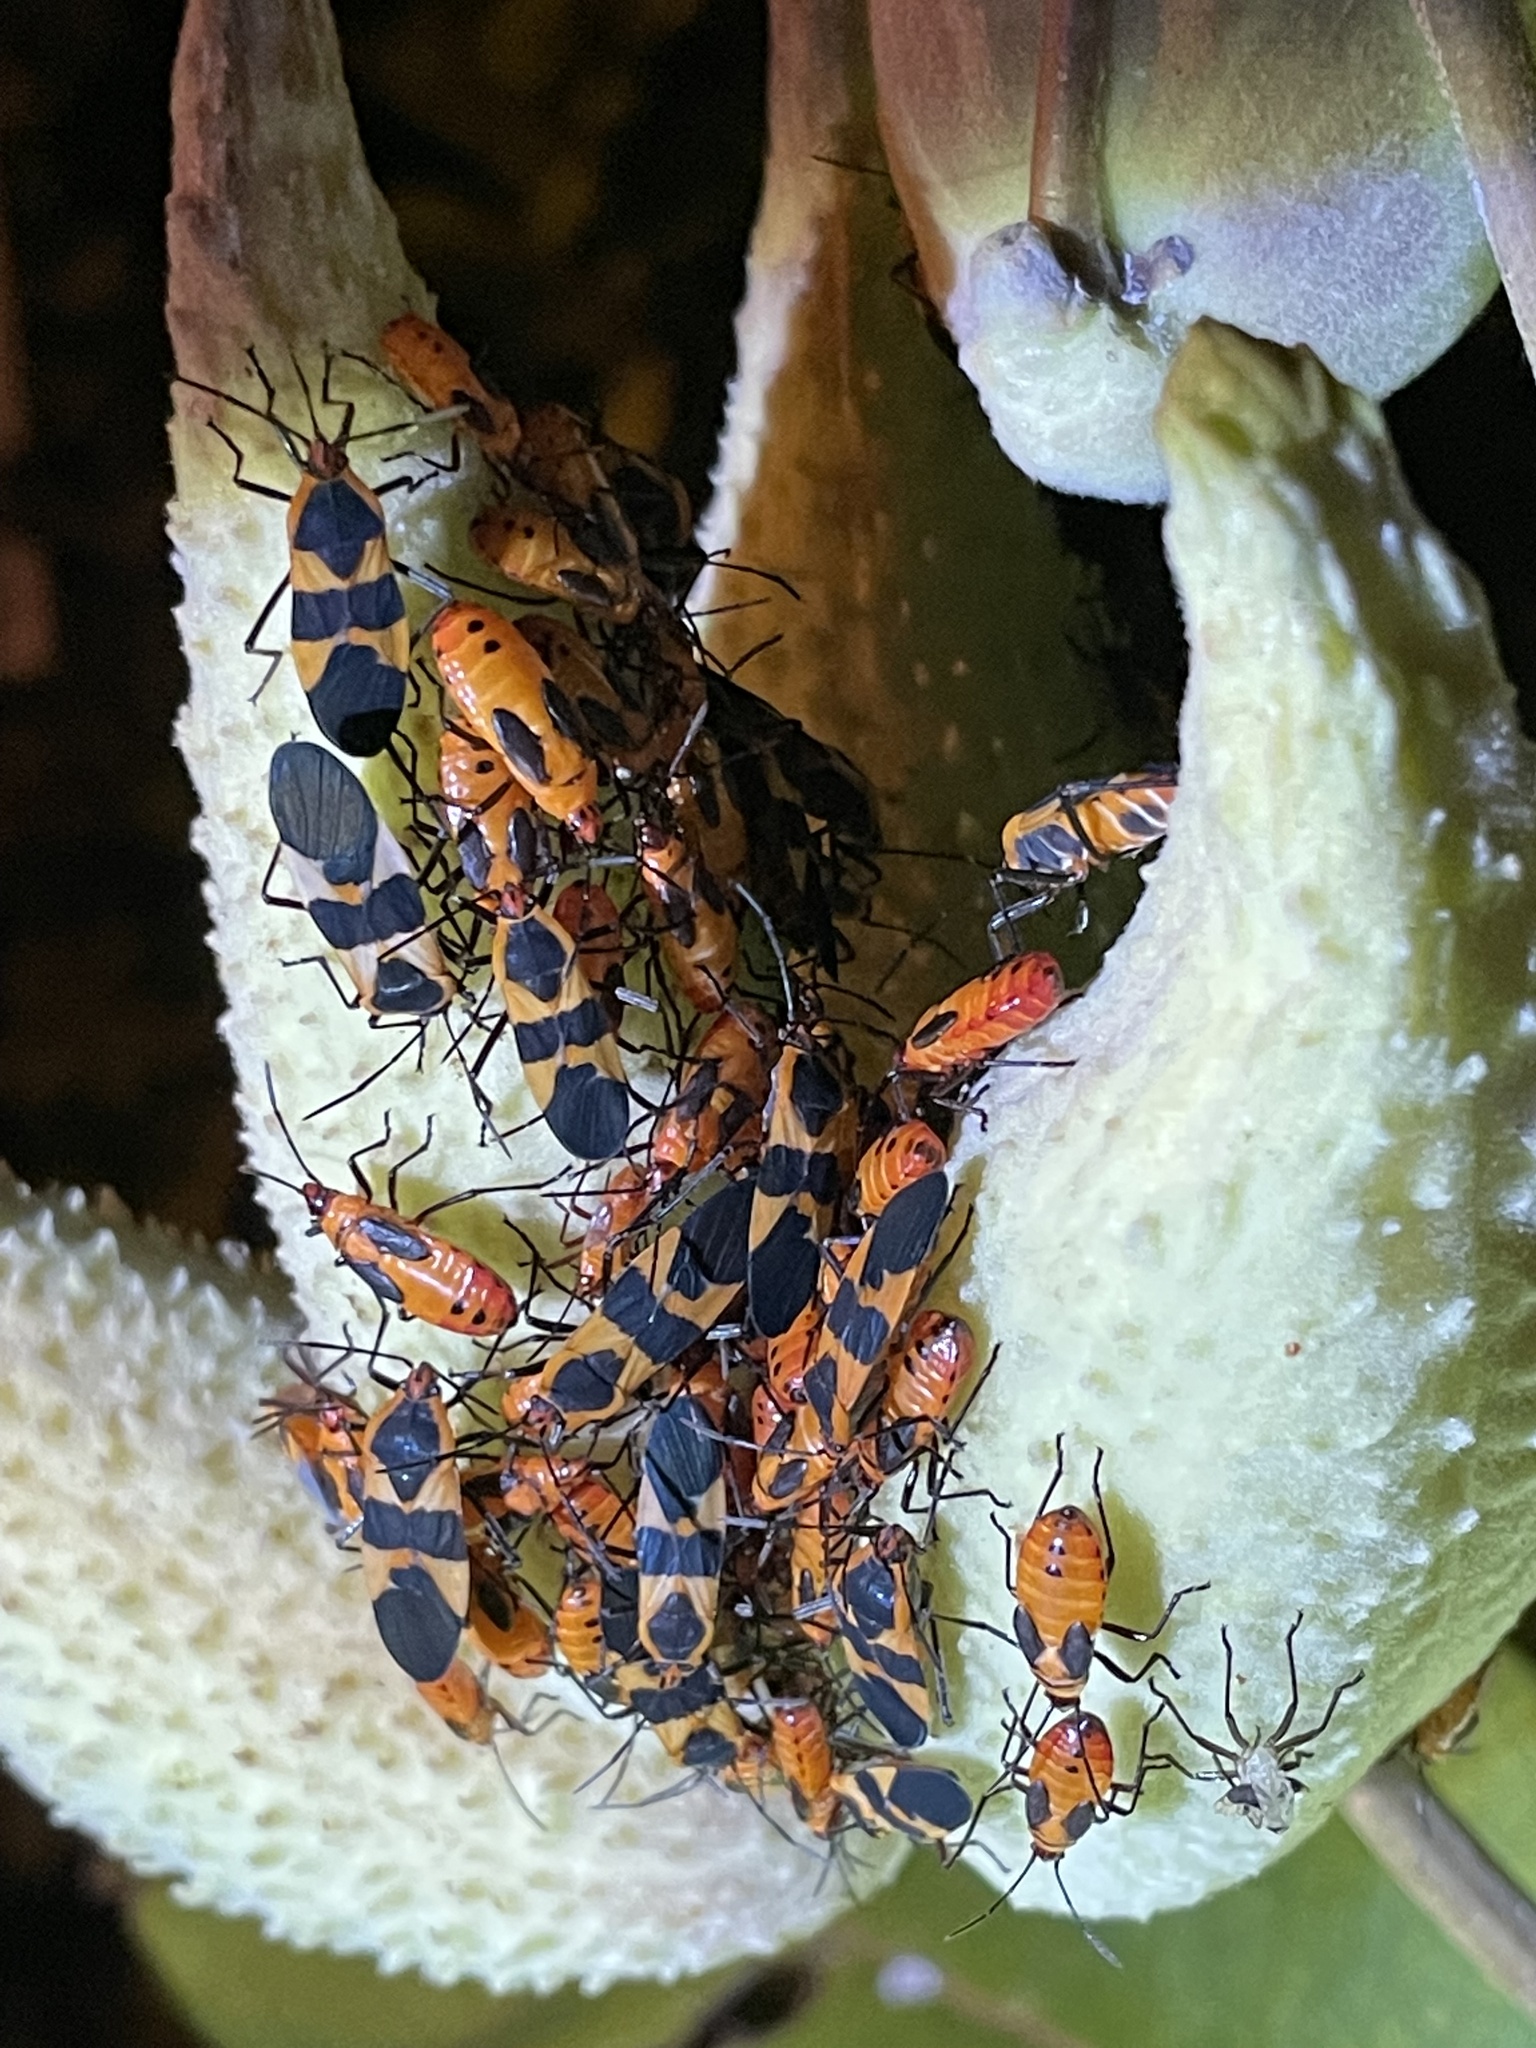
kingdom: Animalia
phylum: Arthropoda
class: Insecta
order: Hemiptera
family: Lygaeidae
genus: Oncopeltus
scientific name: Oncopeltus fasciatus
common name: Large milkweed bug
